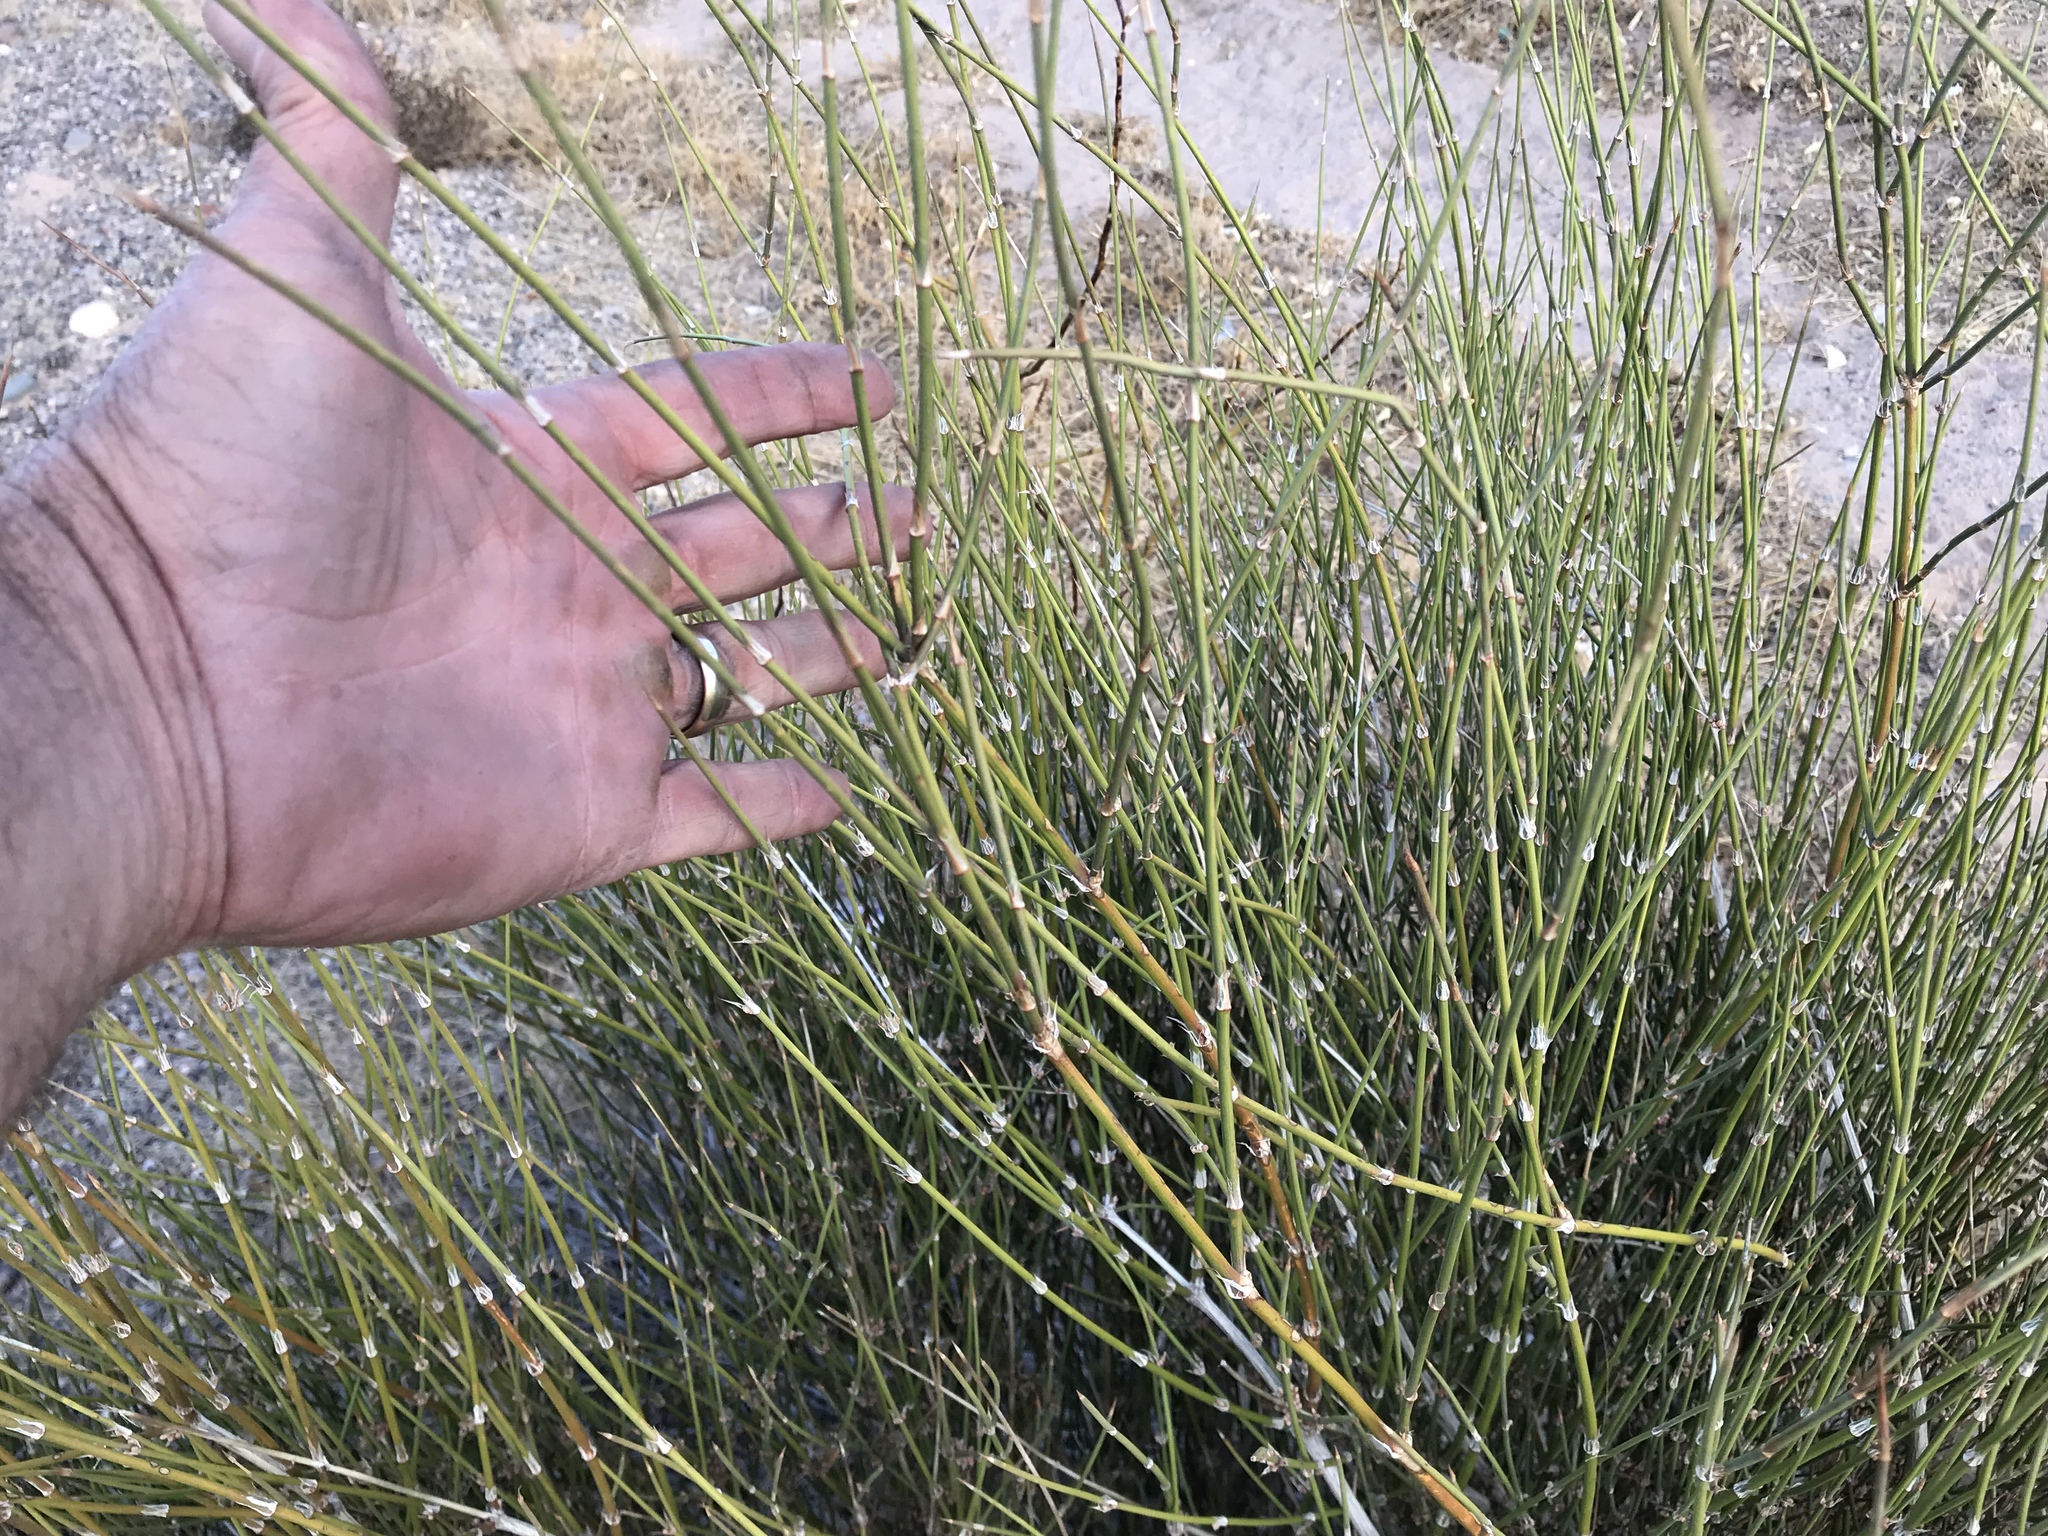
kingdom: Plantae
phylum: Tracheophyta
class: Gnetopsida
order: Ephedrales
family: Ephedraceae
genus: Ephedra
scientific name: Ephedra trifurca
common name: Mexican-tea
